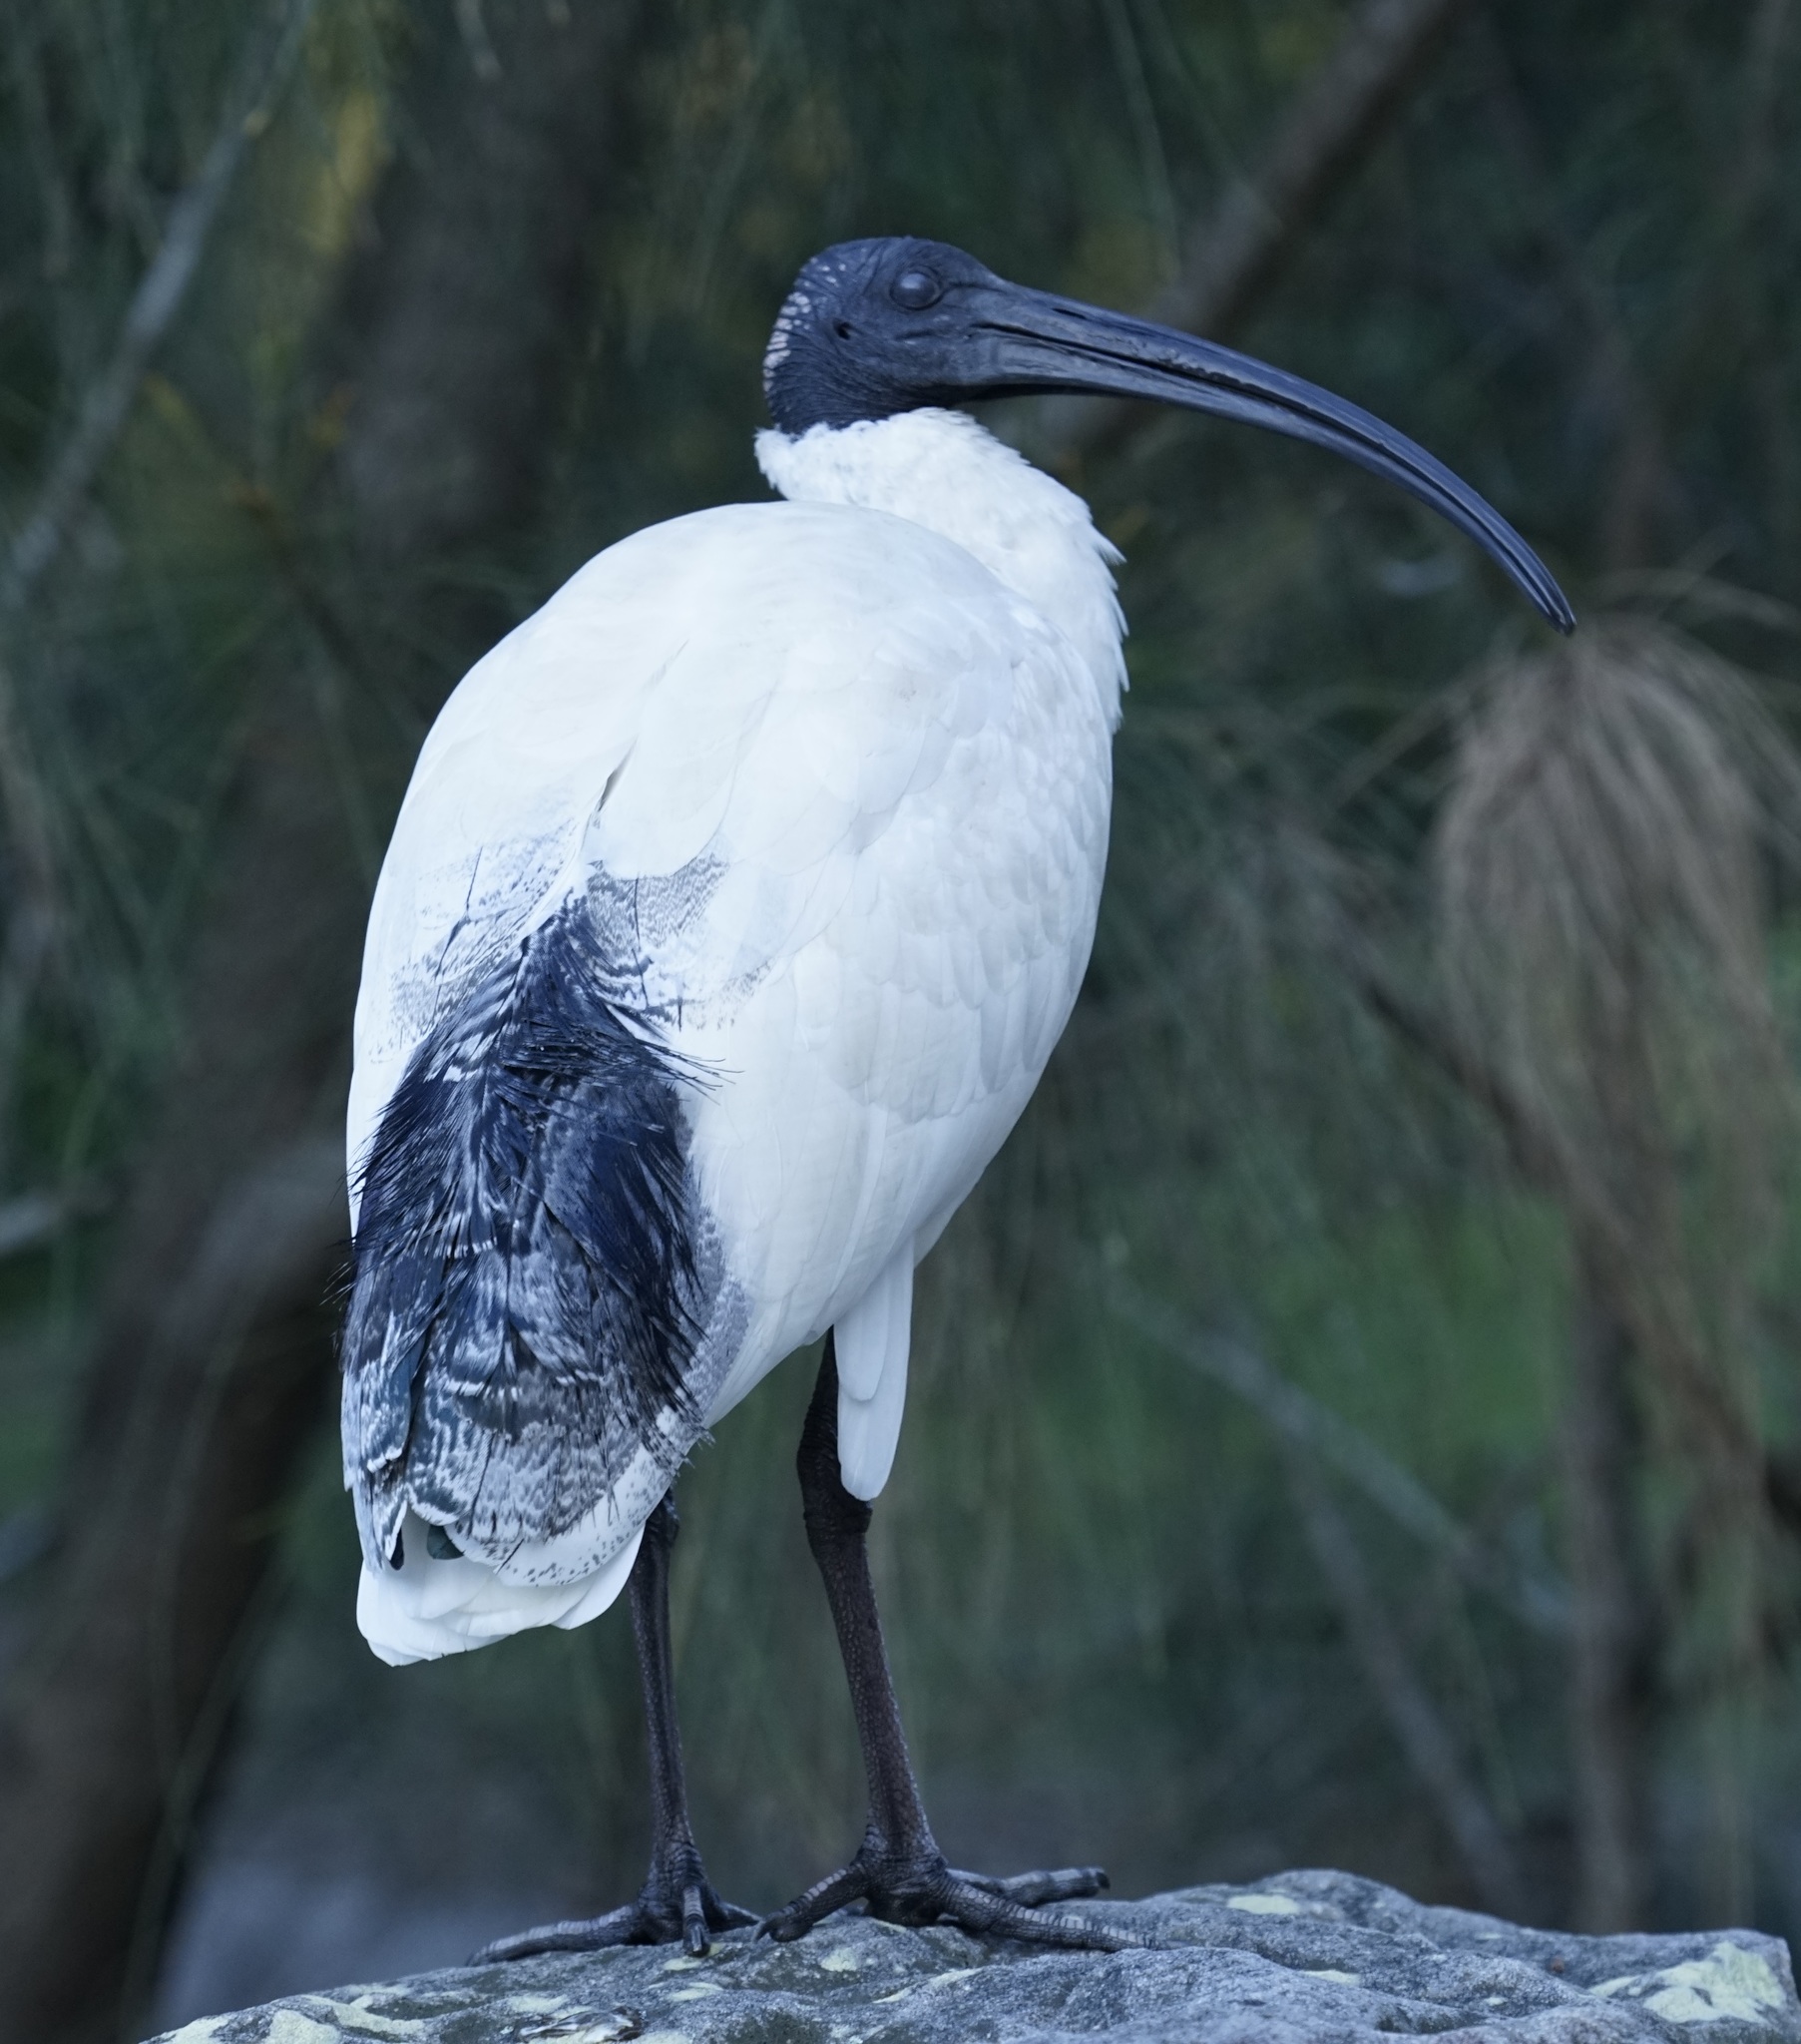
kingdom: Animalia
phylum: Chordata
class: Aves
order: Pelecaniformes
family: Threskiornithidae
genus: Threskiornis
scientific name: Threskiornis molucca
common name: Australian white ibis
